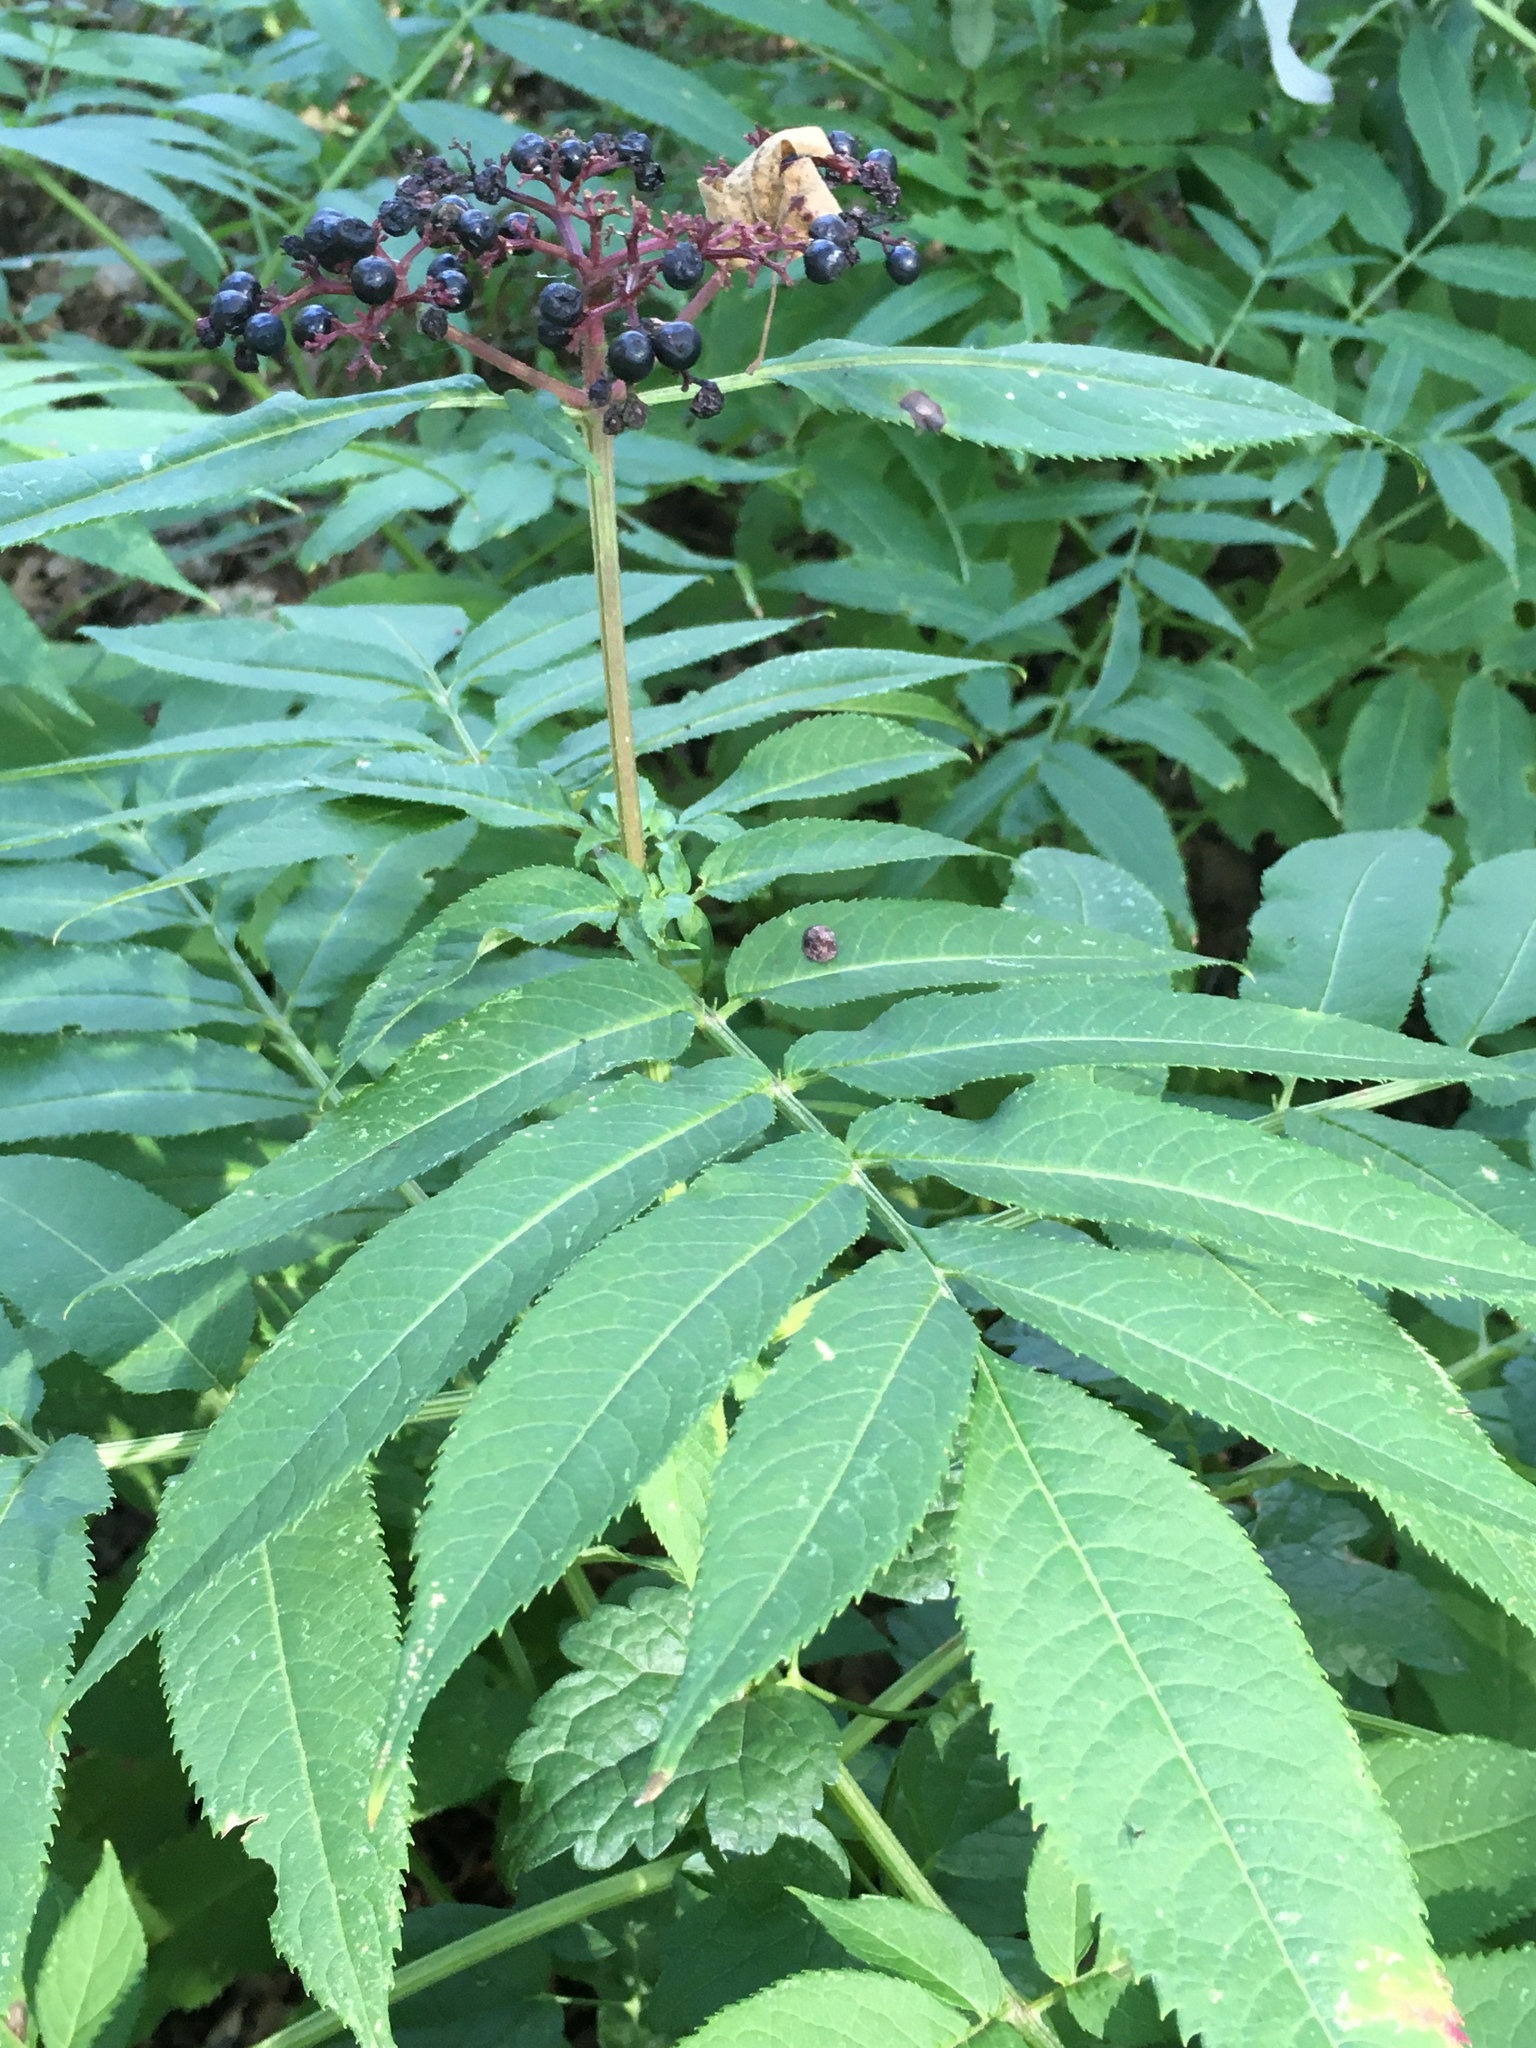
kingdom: Plantae
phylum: Tracheophyta
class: Magnoliopsida
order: Dipsacales
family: Viburnaceae
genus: Sambucus
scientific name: Sambucus ebulus
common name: Dwarf elder
